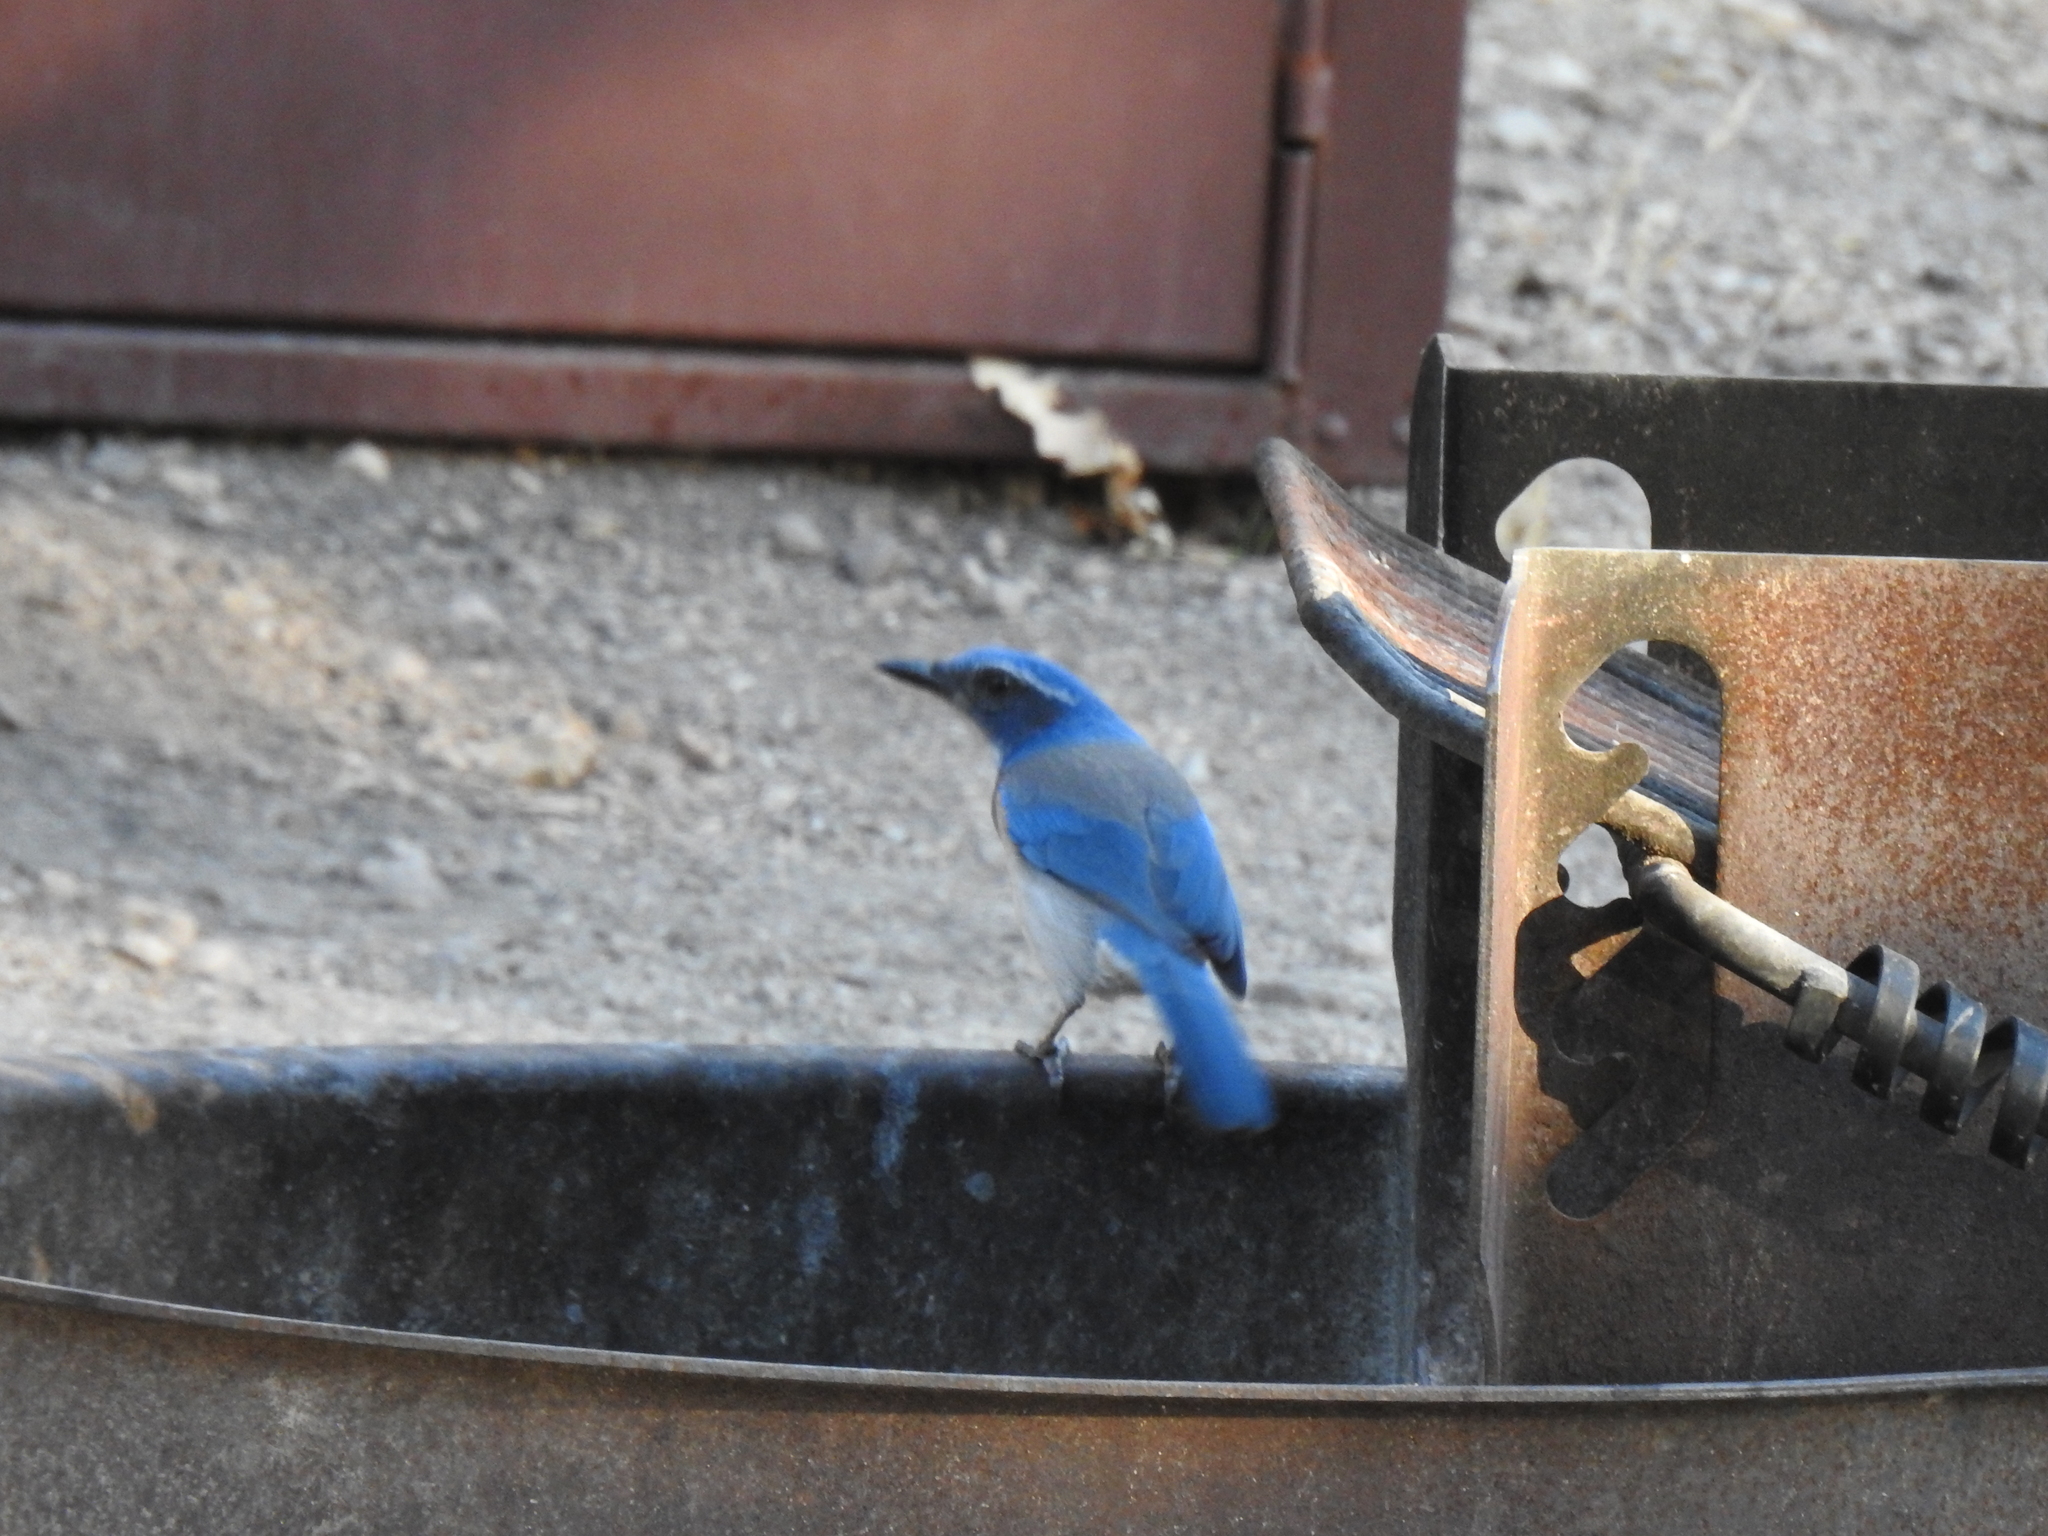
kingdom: Animalia
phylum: Chordata
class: Aves
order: Passeriformes
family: Corvidae
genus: Aphelocoma
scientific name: Aphelocoma californica
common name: California scrub-jay
